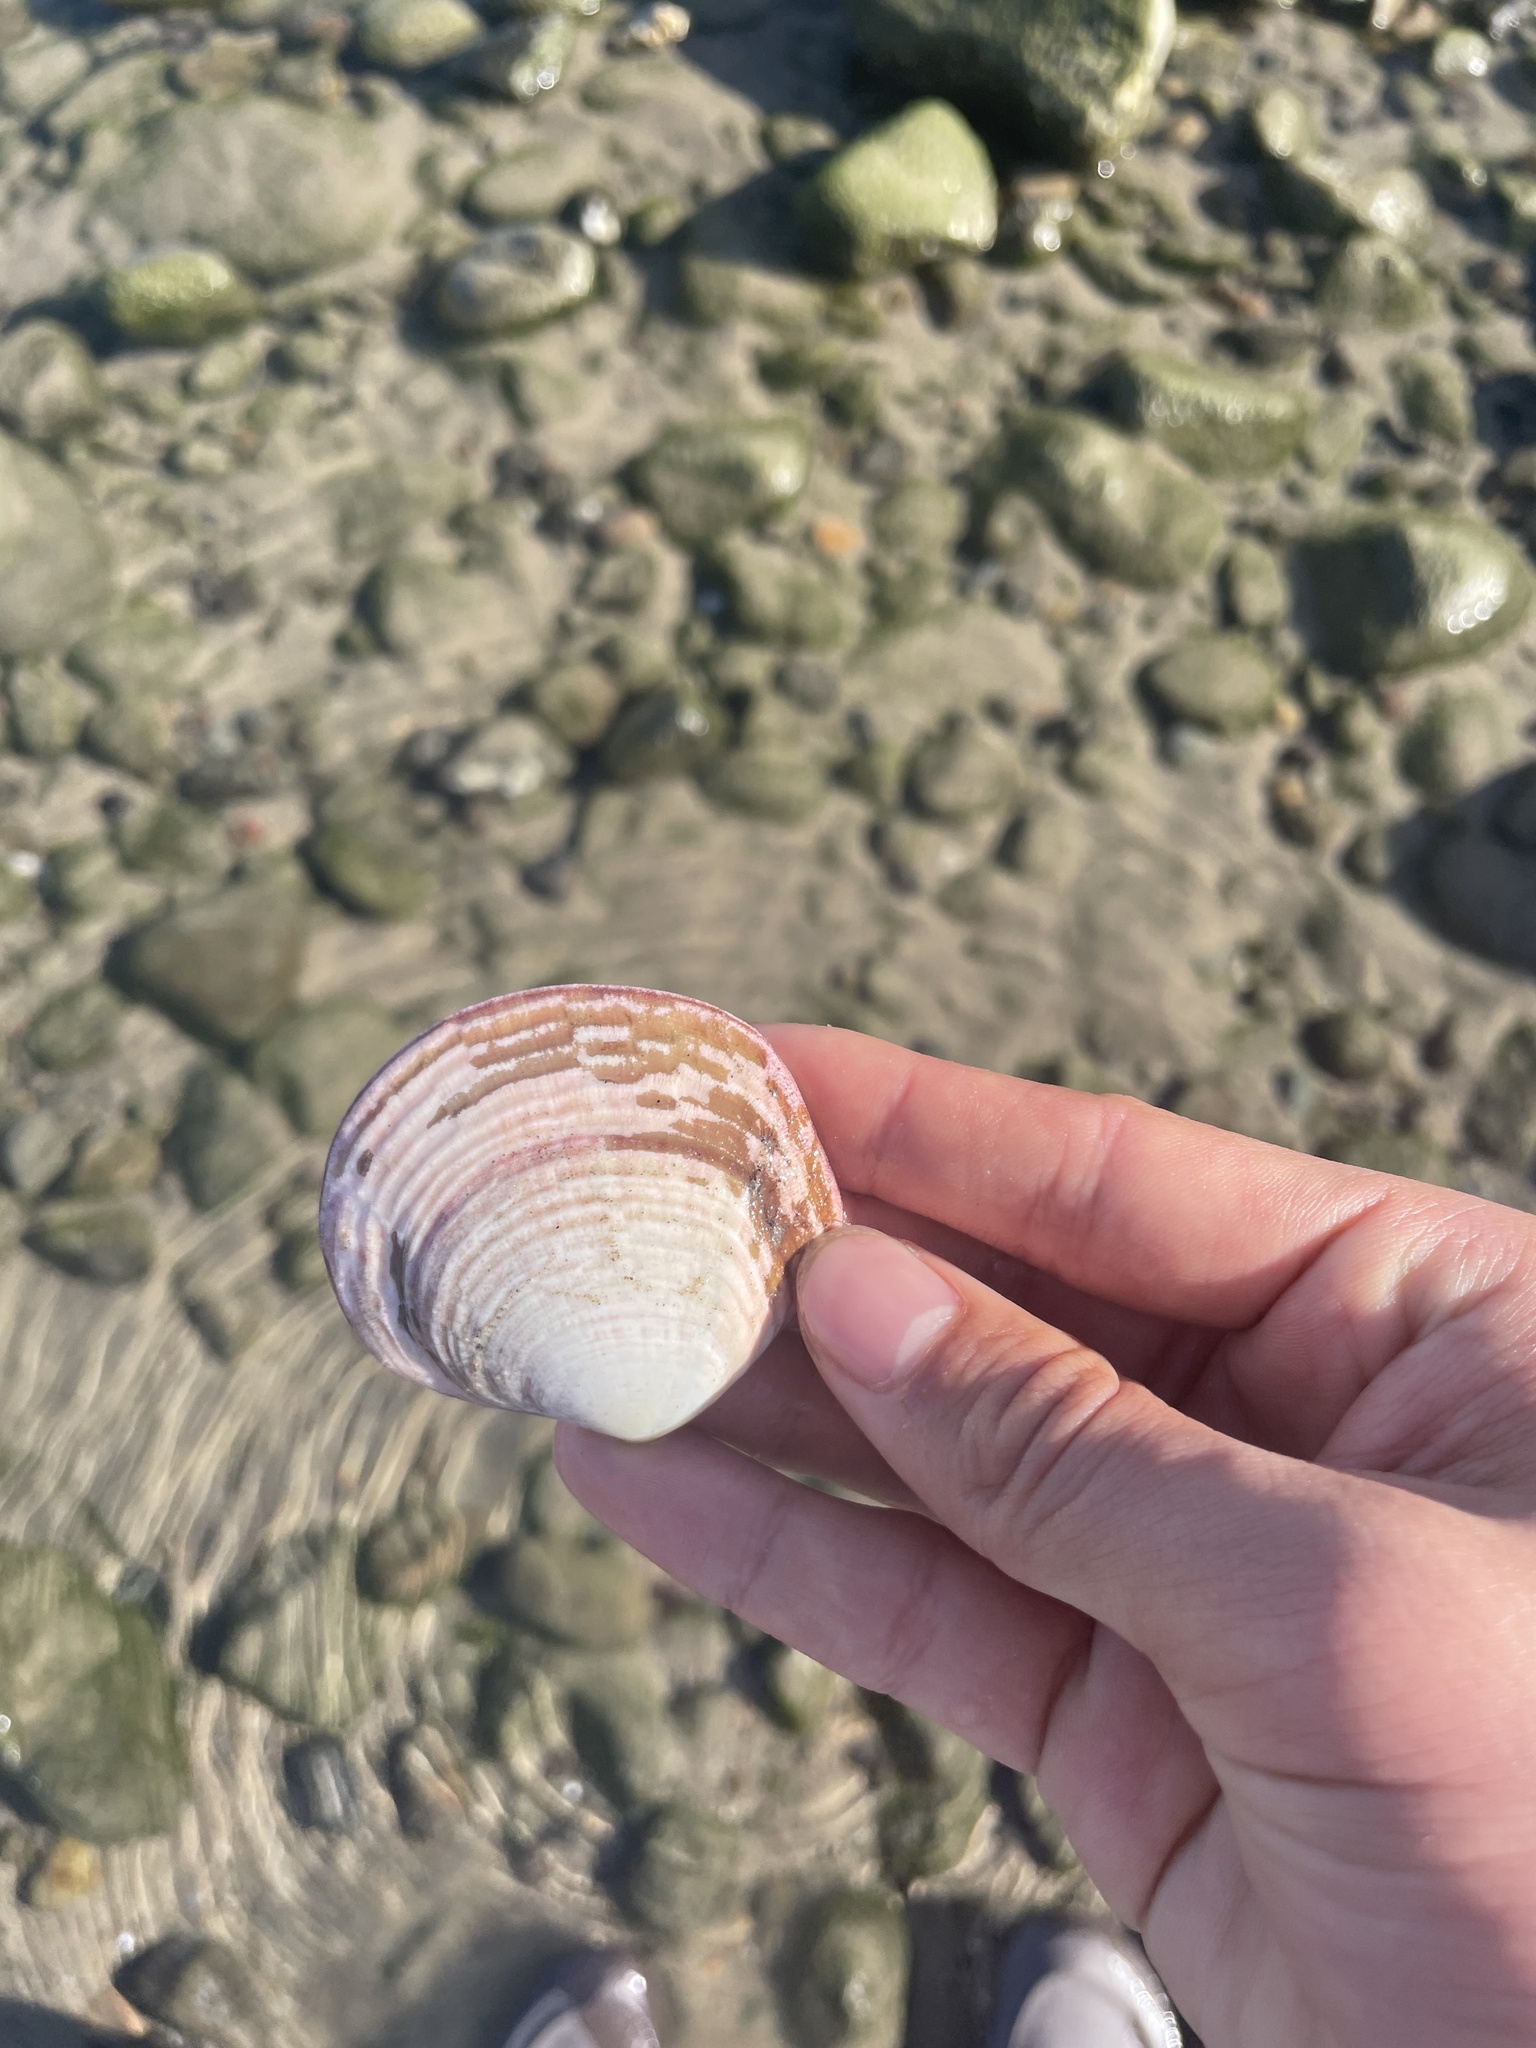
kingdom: Animalia
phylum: Mollusca
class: Bivalvia
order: Cardiida
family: Semelidae
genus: Semele
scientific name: Semele decisa
